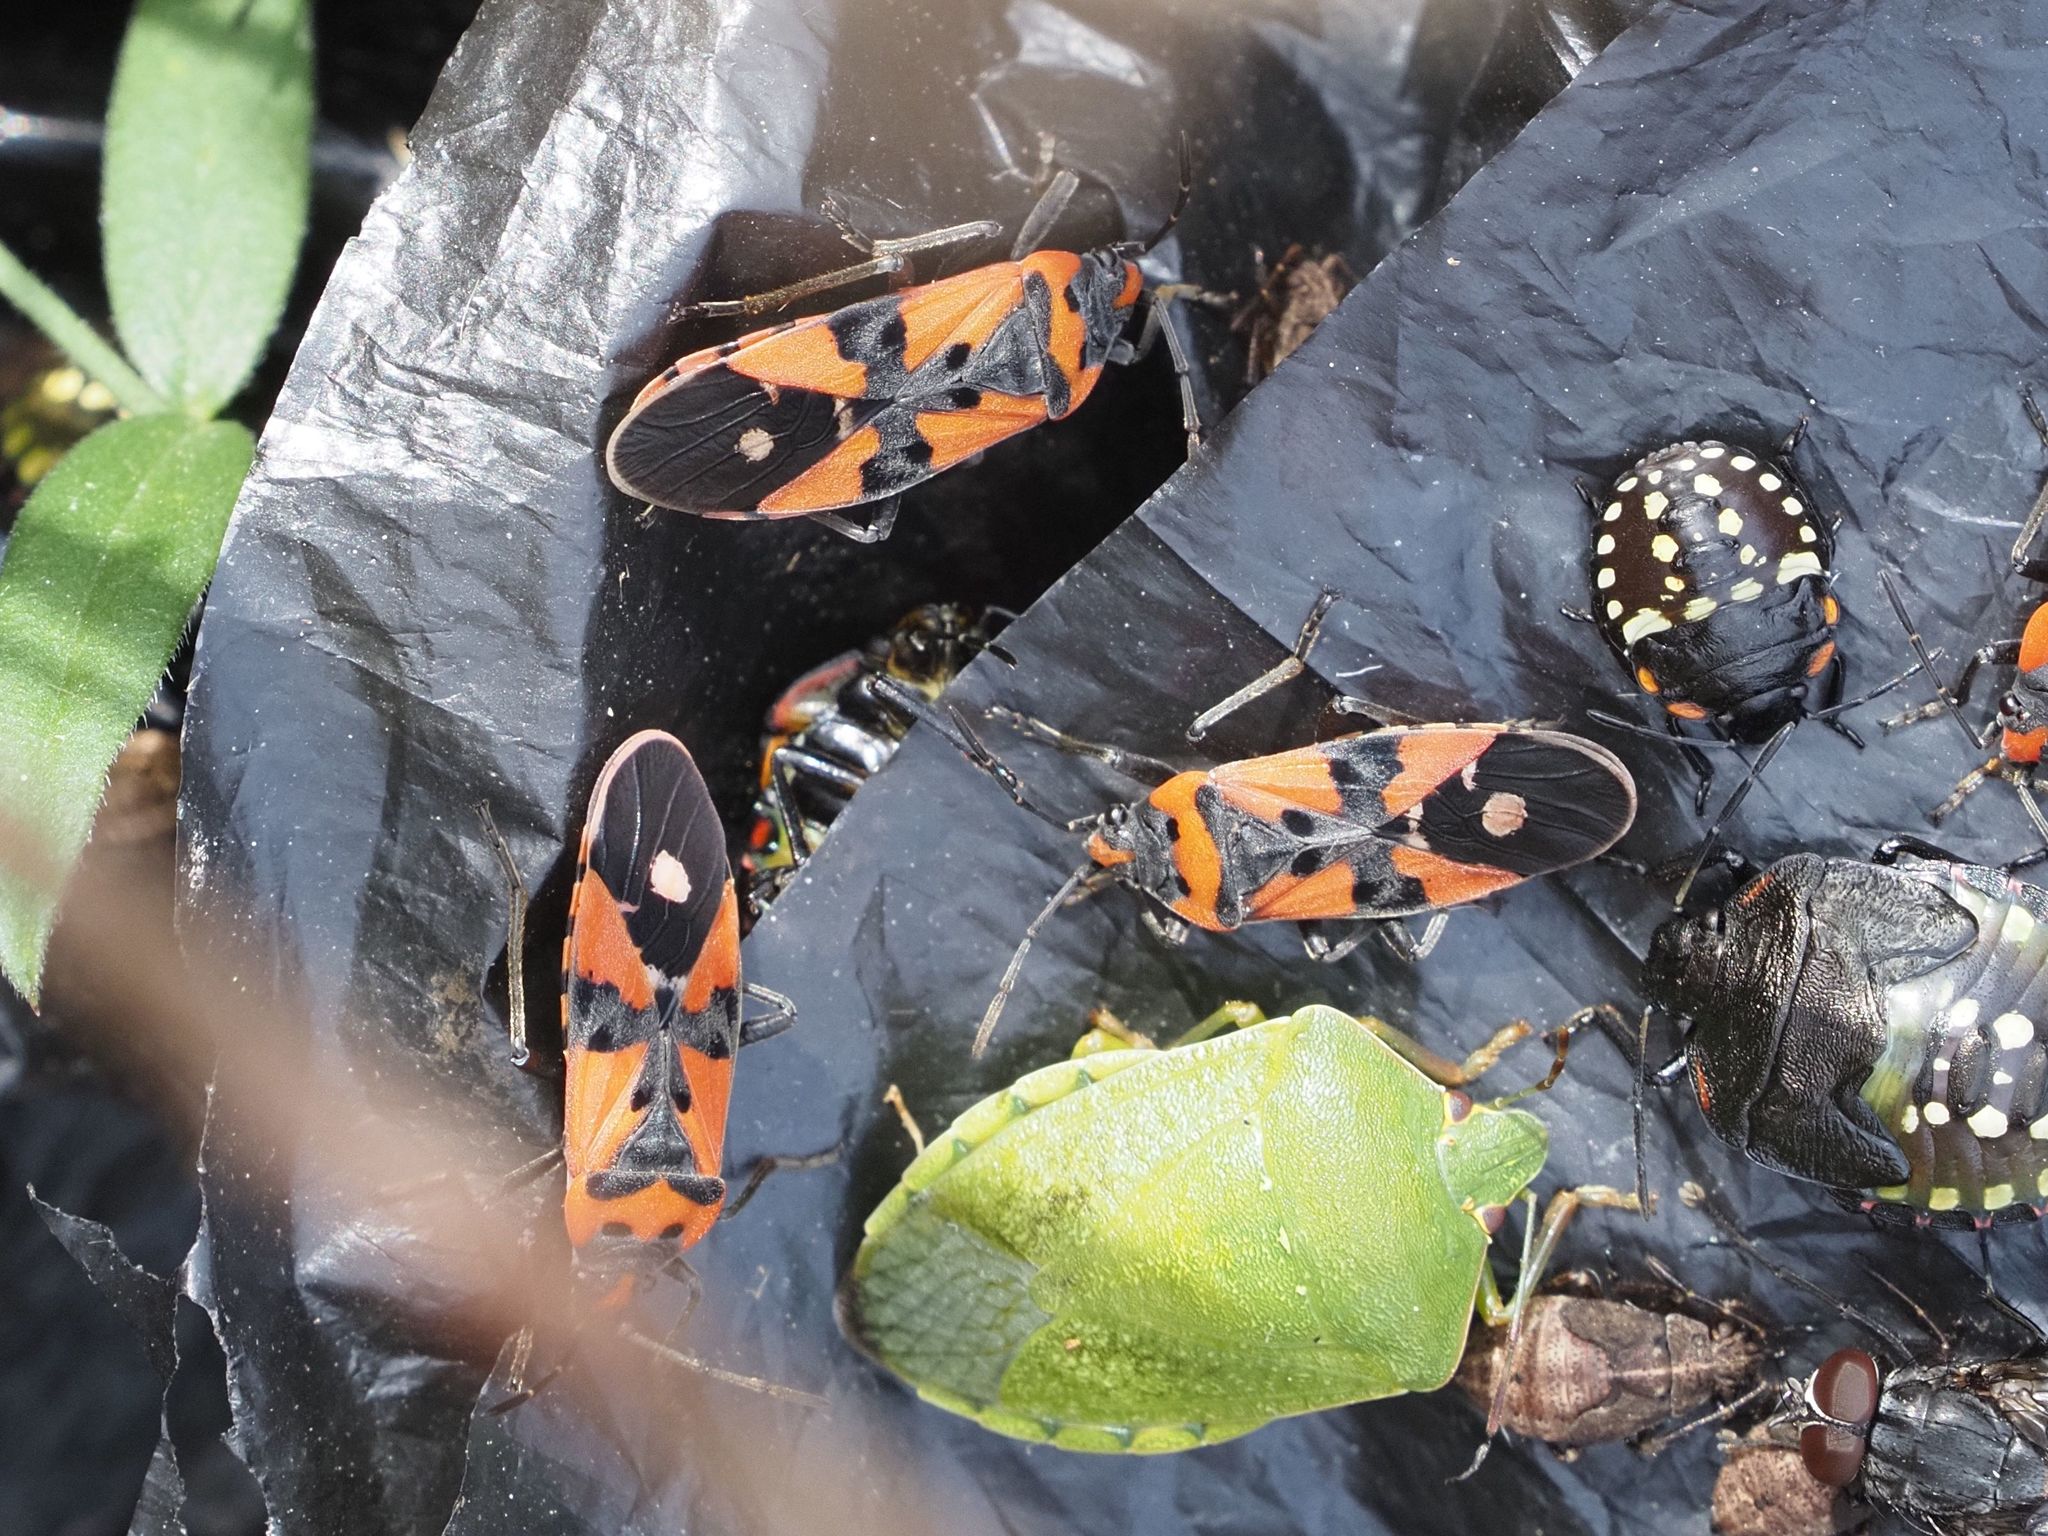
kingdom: Animalia
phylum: Arthropoda
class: Insecta
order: Hemiptera
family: Lygaeidae
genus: Lygaeus
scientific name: Lygaeus equestris
